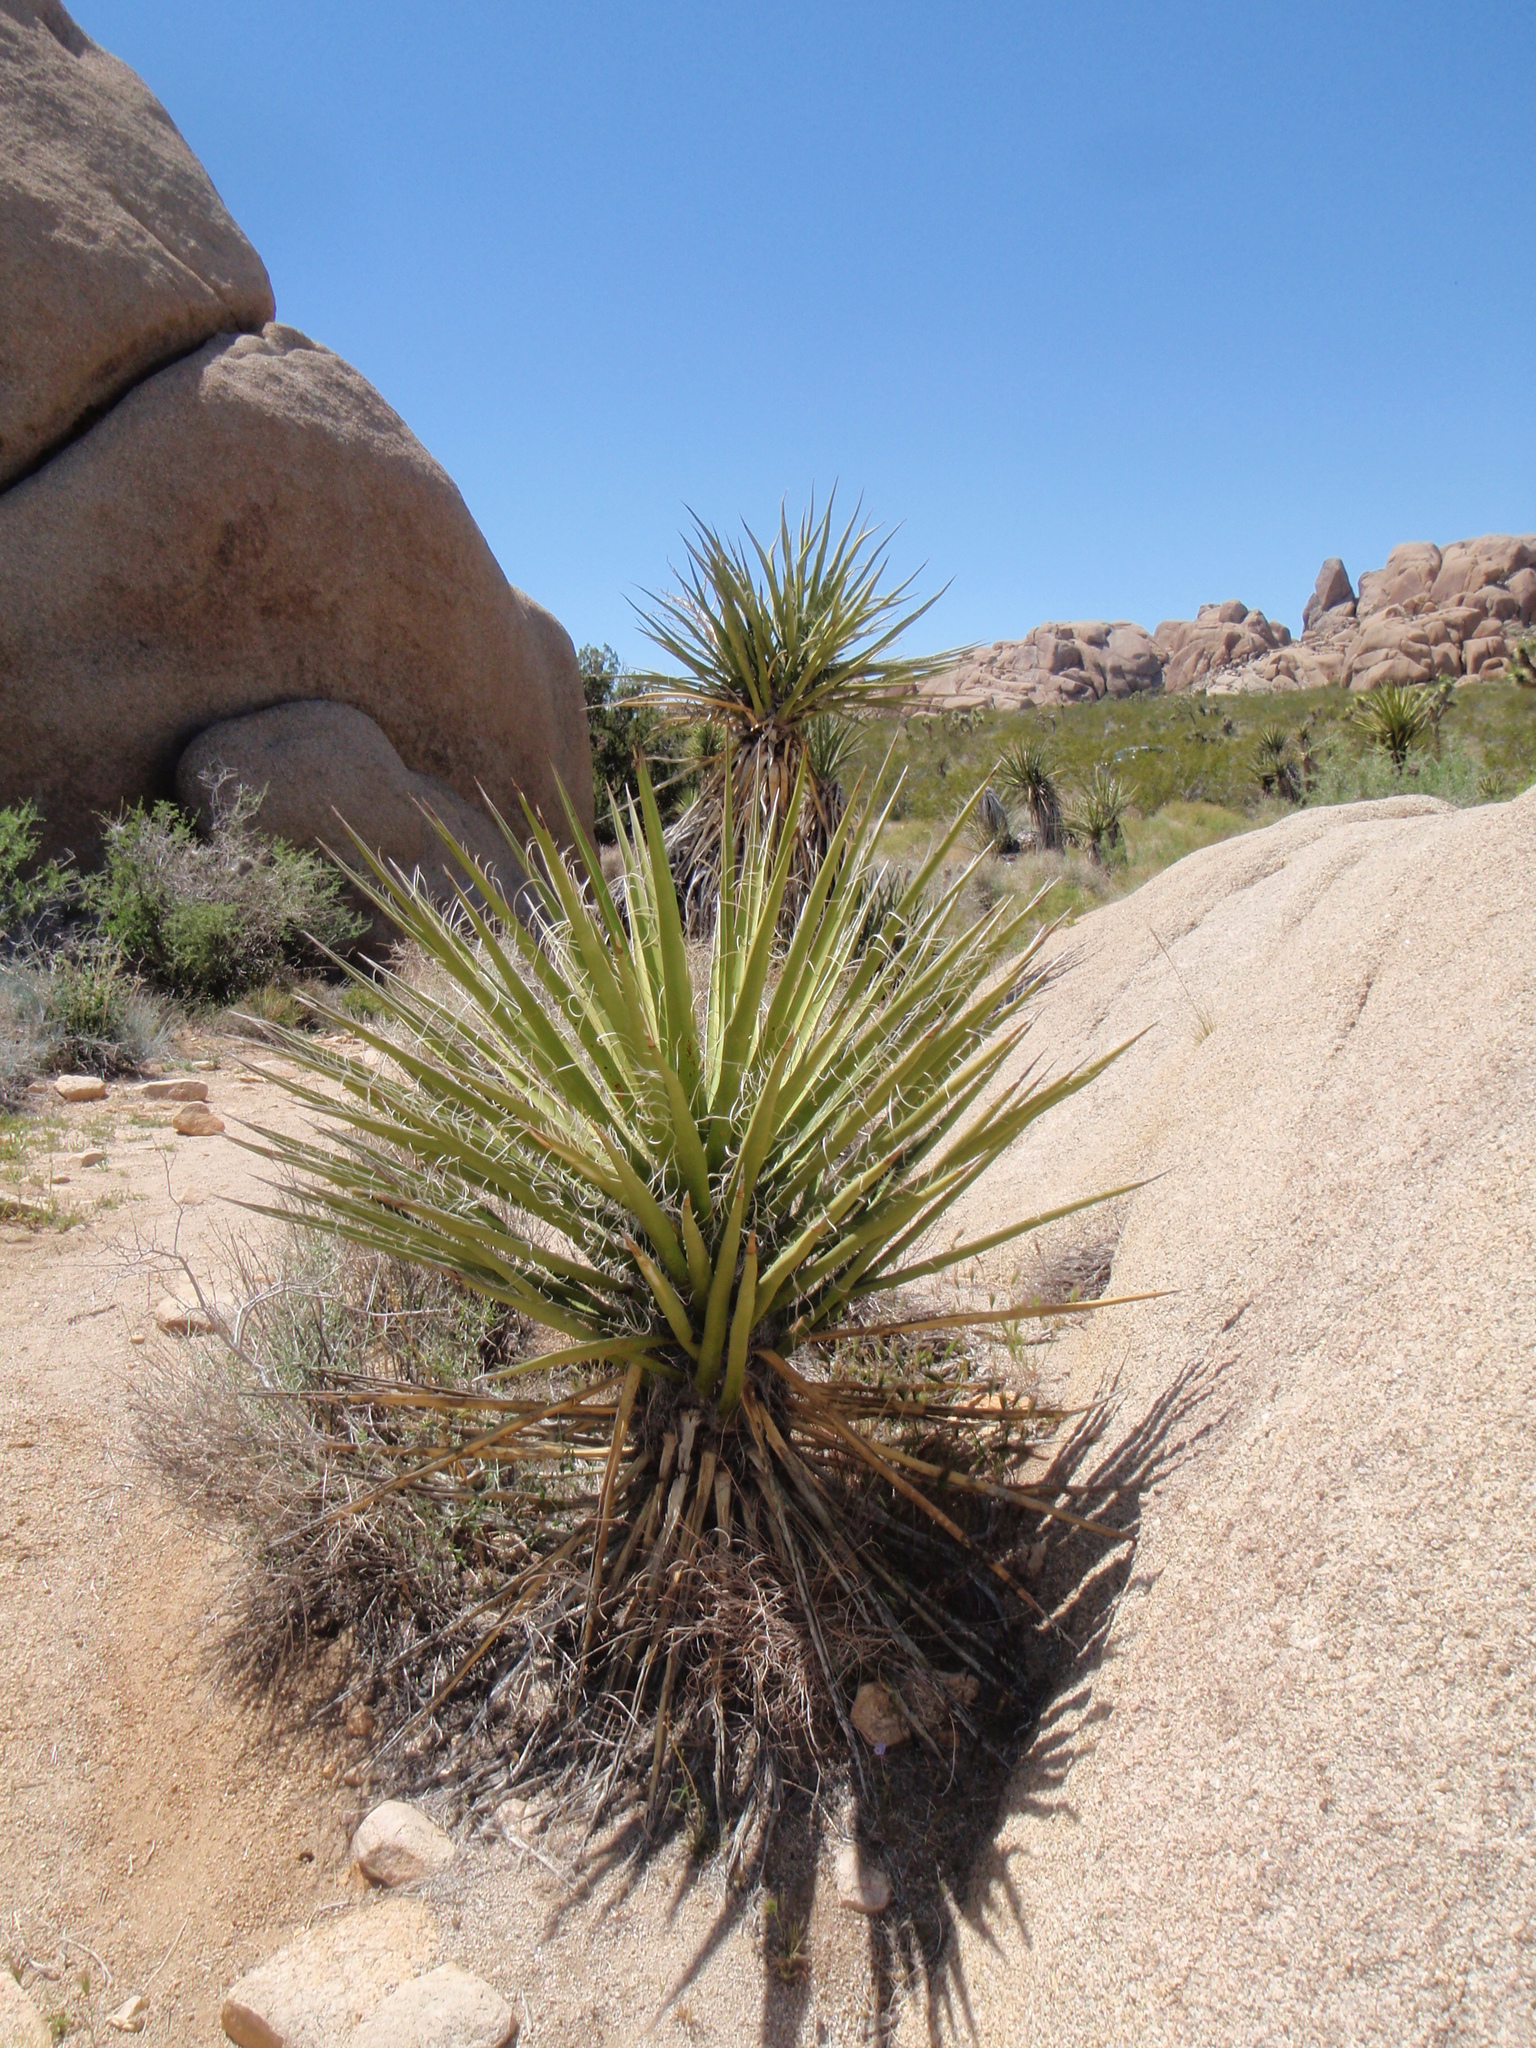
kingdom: Plantae
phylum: Tracheophyta
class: Liliopsida
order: Asparagales
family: Asparagaceae
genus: Yucca
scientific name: Yucca schidigera
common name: Mojave yucca
